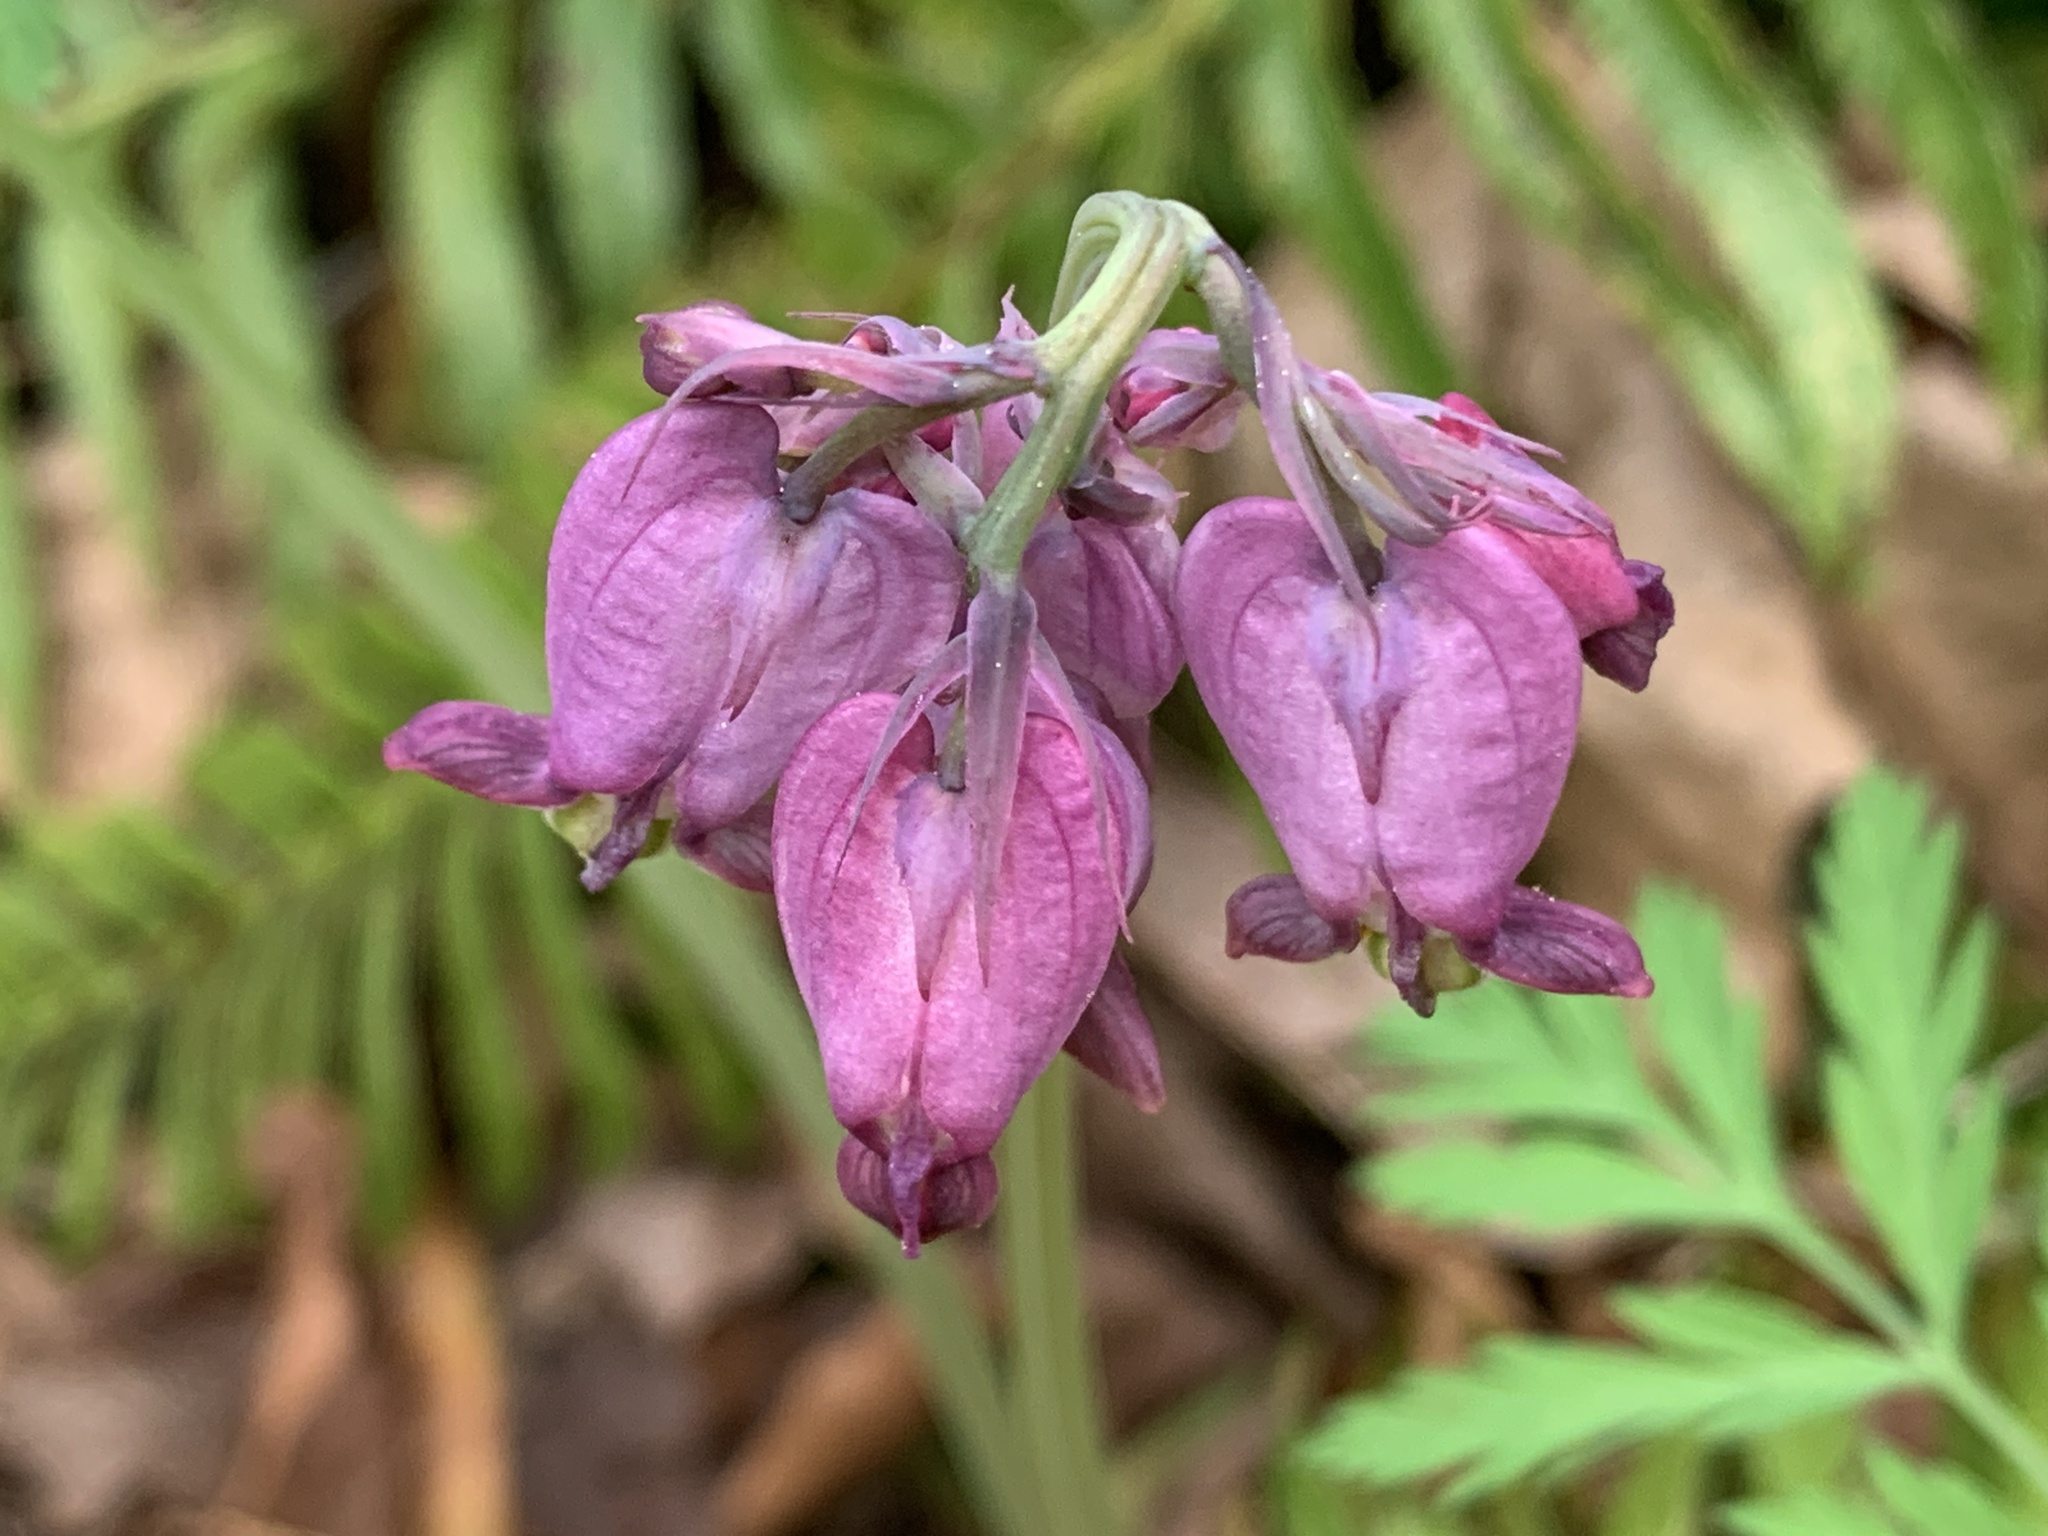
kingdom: Plantae
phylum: Tracheophyta
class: Magnoliopsida
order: Ranunculales
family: Papaveraceae
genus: Dicentra
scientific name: Dicentra formosa
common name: Bleeding-heart
